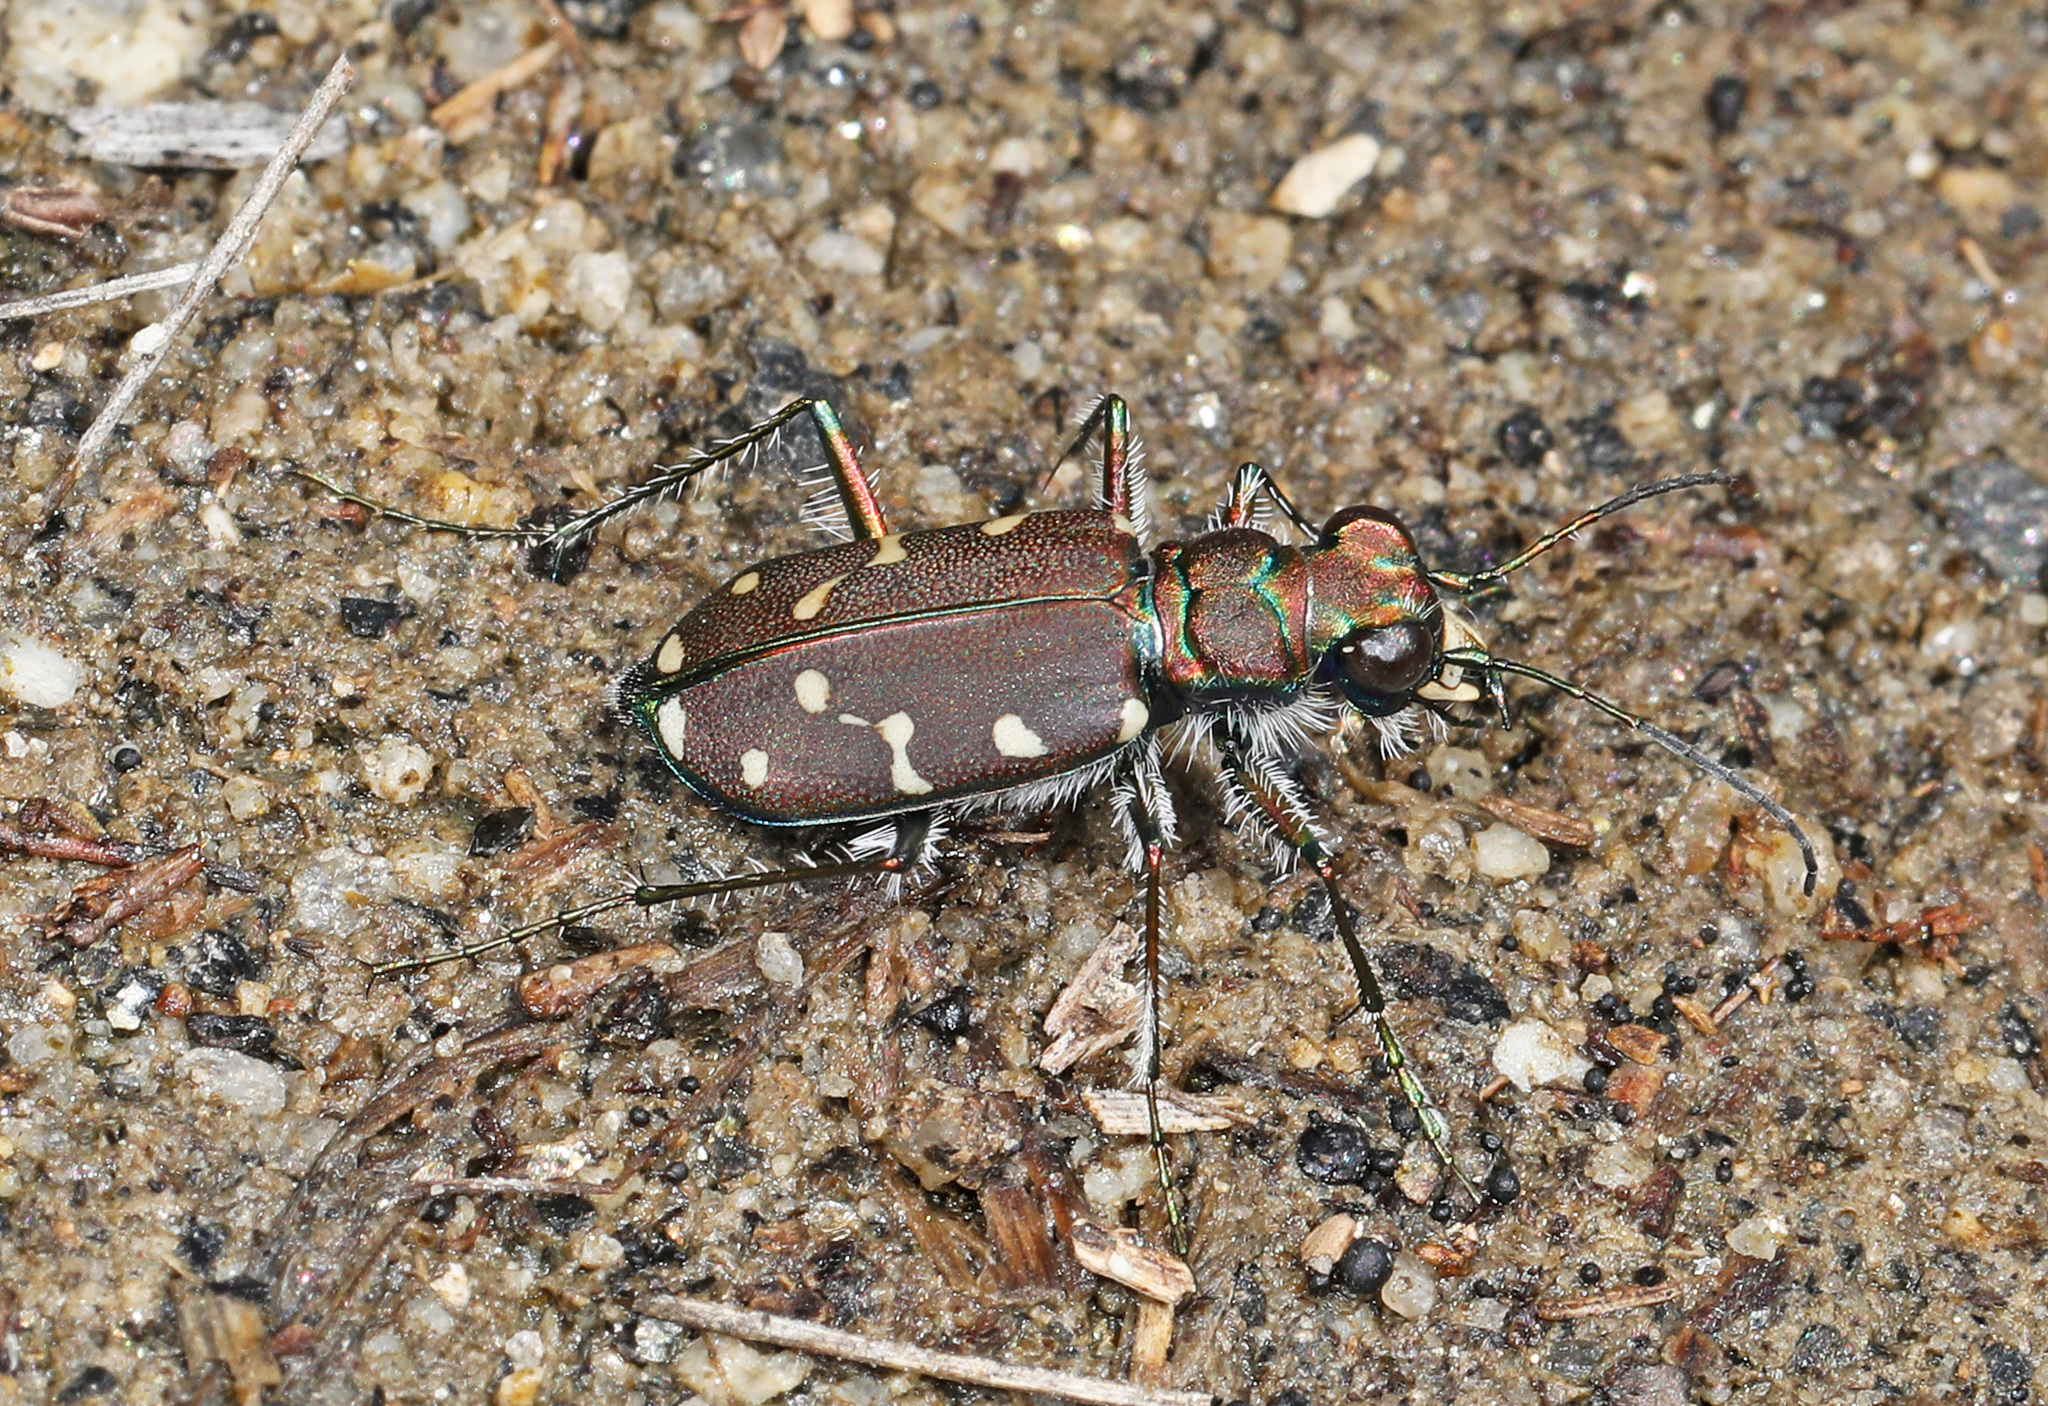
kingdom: Animalia
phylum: Arthropoda
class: Insecta
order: Coleoptera
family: Carabidae
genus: Cicindela
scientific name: Cicindela oregona
